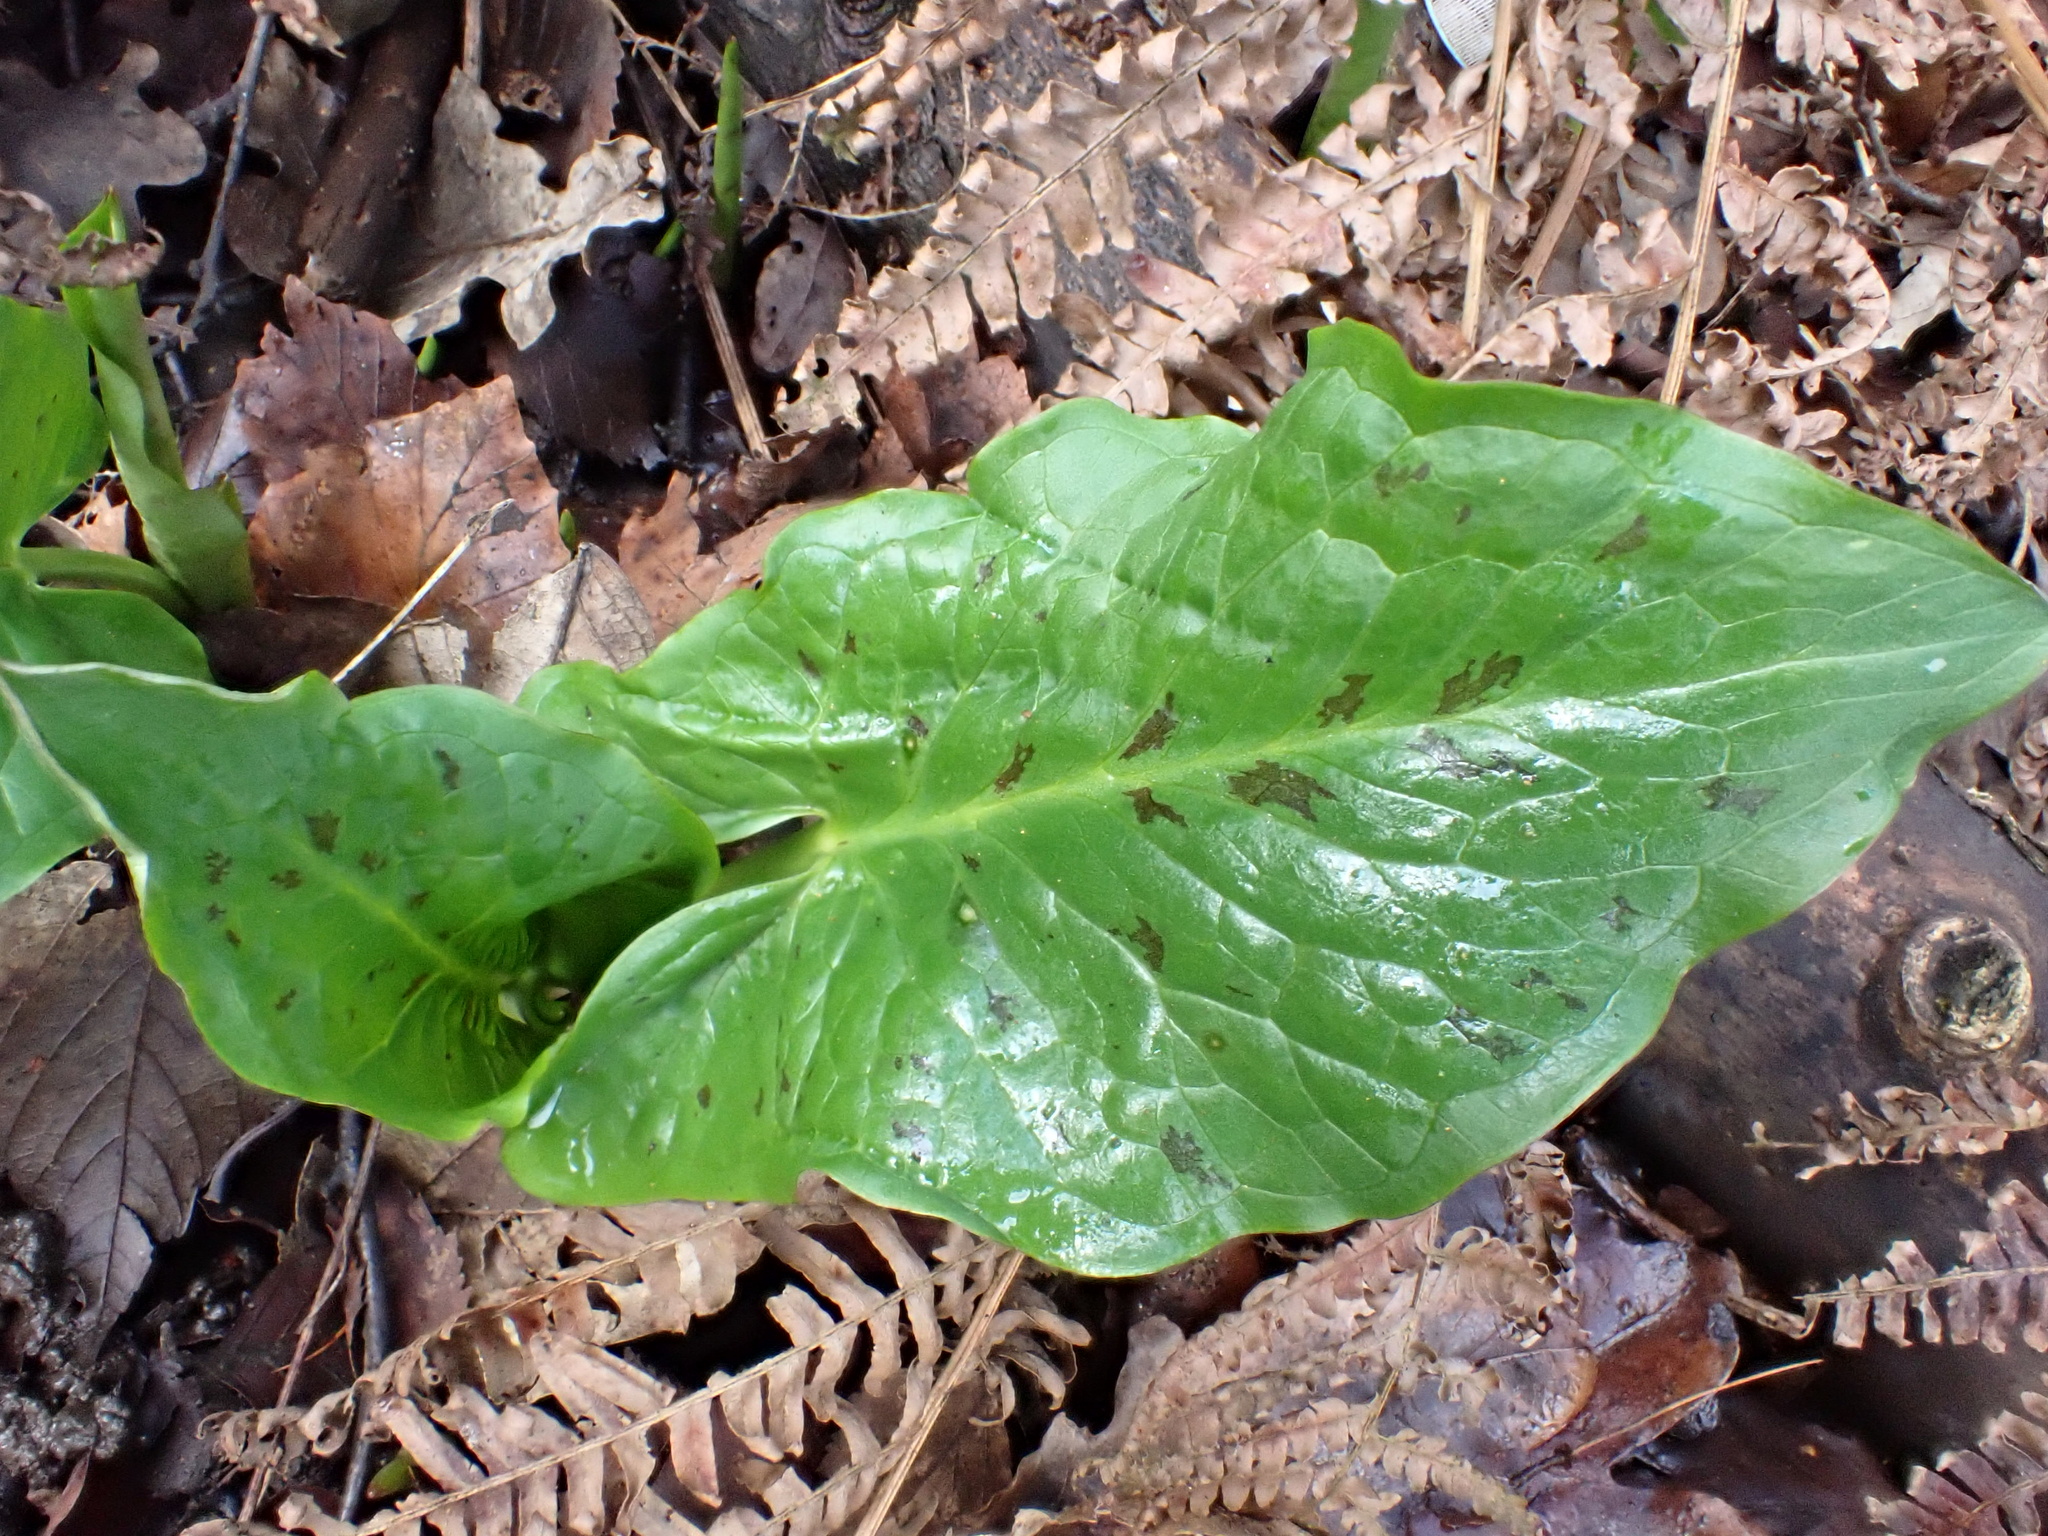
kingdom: Plantae
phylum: Tracheophyta
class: Liliopsida
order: Alismatales
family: Araceae
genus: Arum
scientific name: Arum maculatum
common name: Lords-and-ladies
